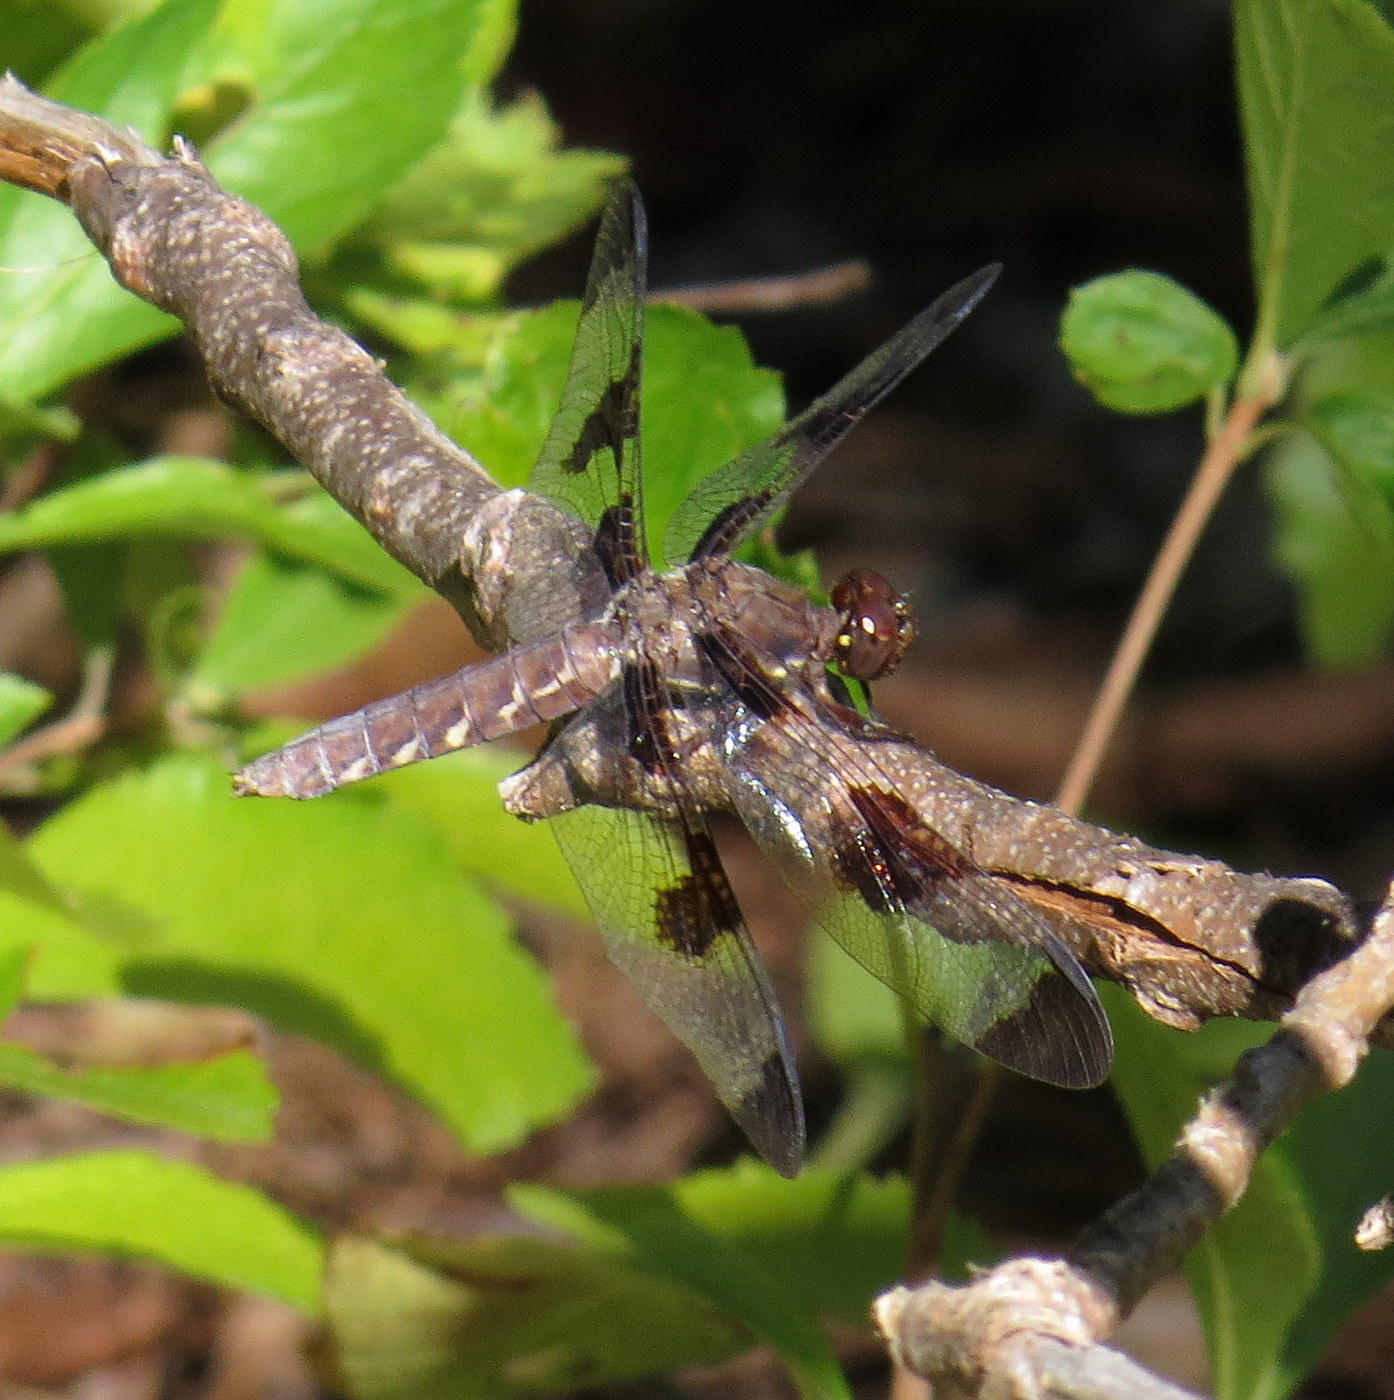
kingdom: Animalia
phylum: Arthropoda
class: Insecta
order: Odonata
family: Libellulidae
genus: Plathemis
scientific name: Plathemis lydia
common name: Common whitetail
